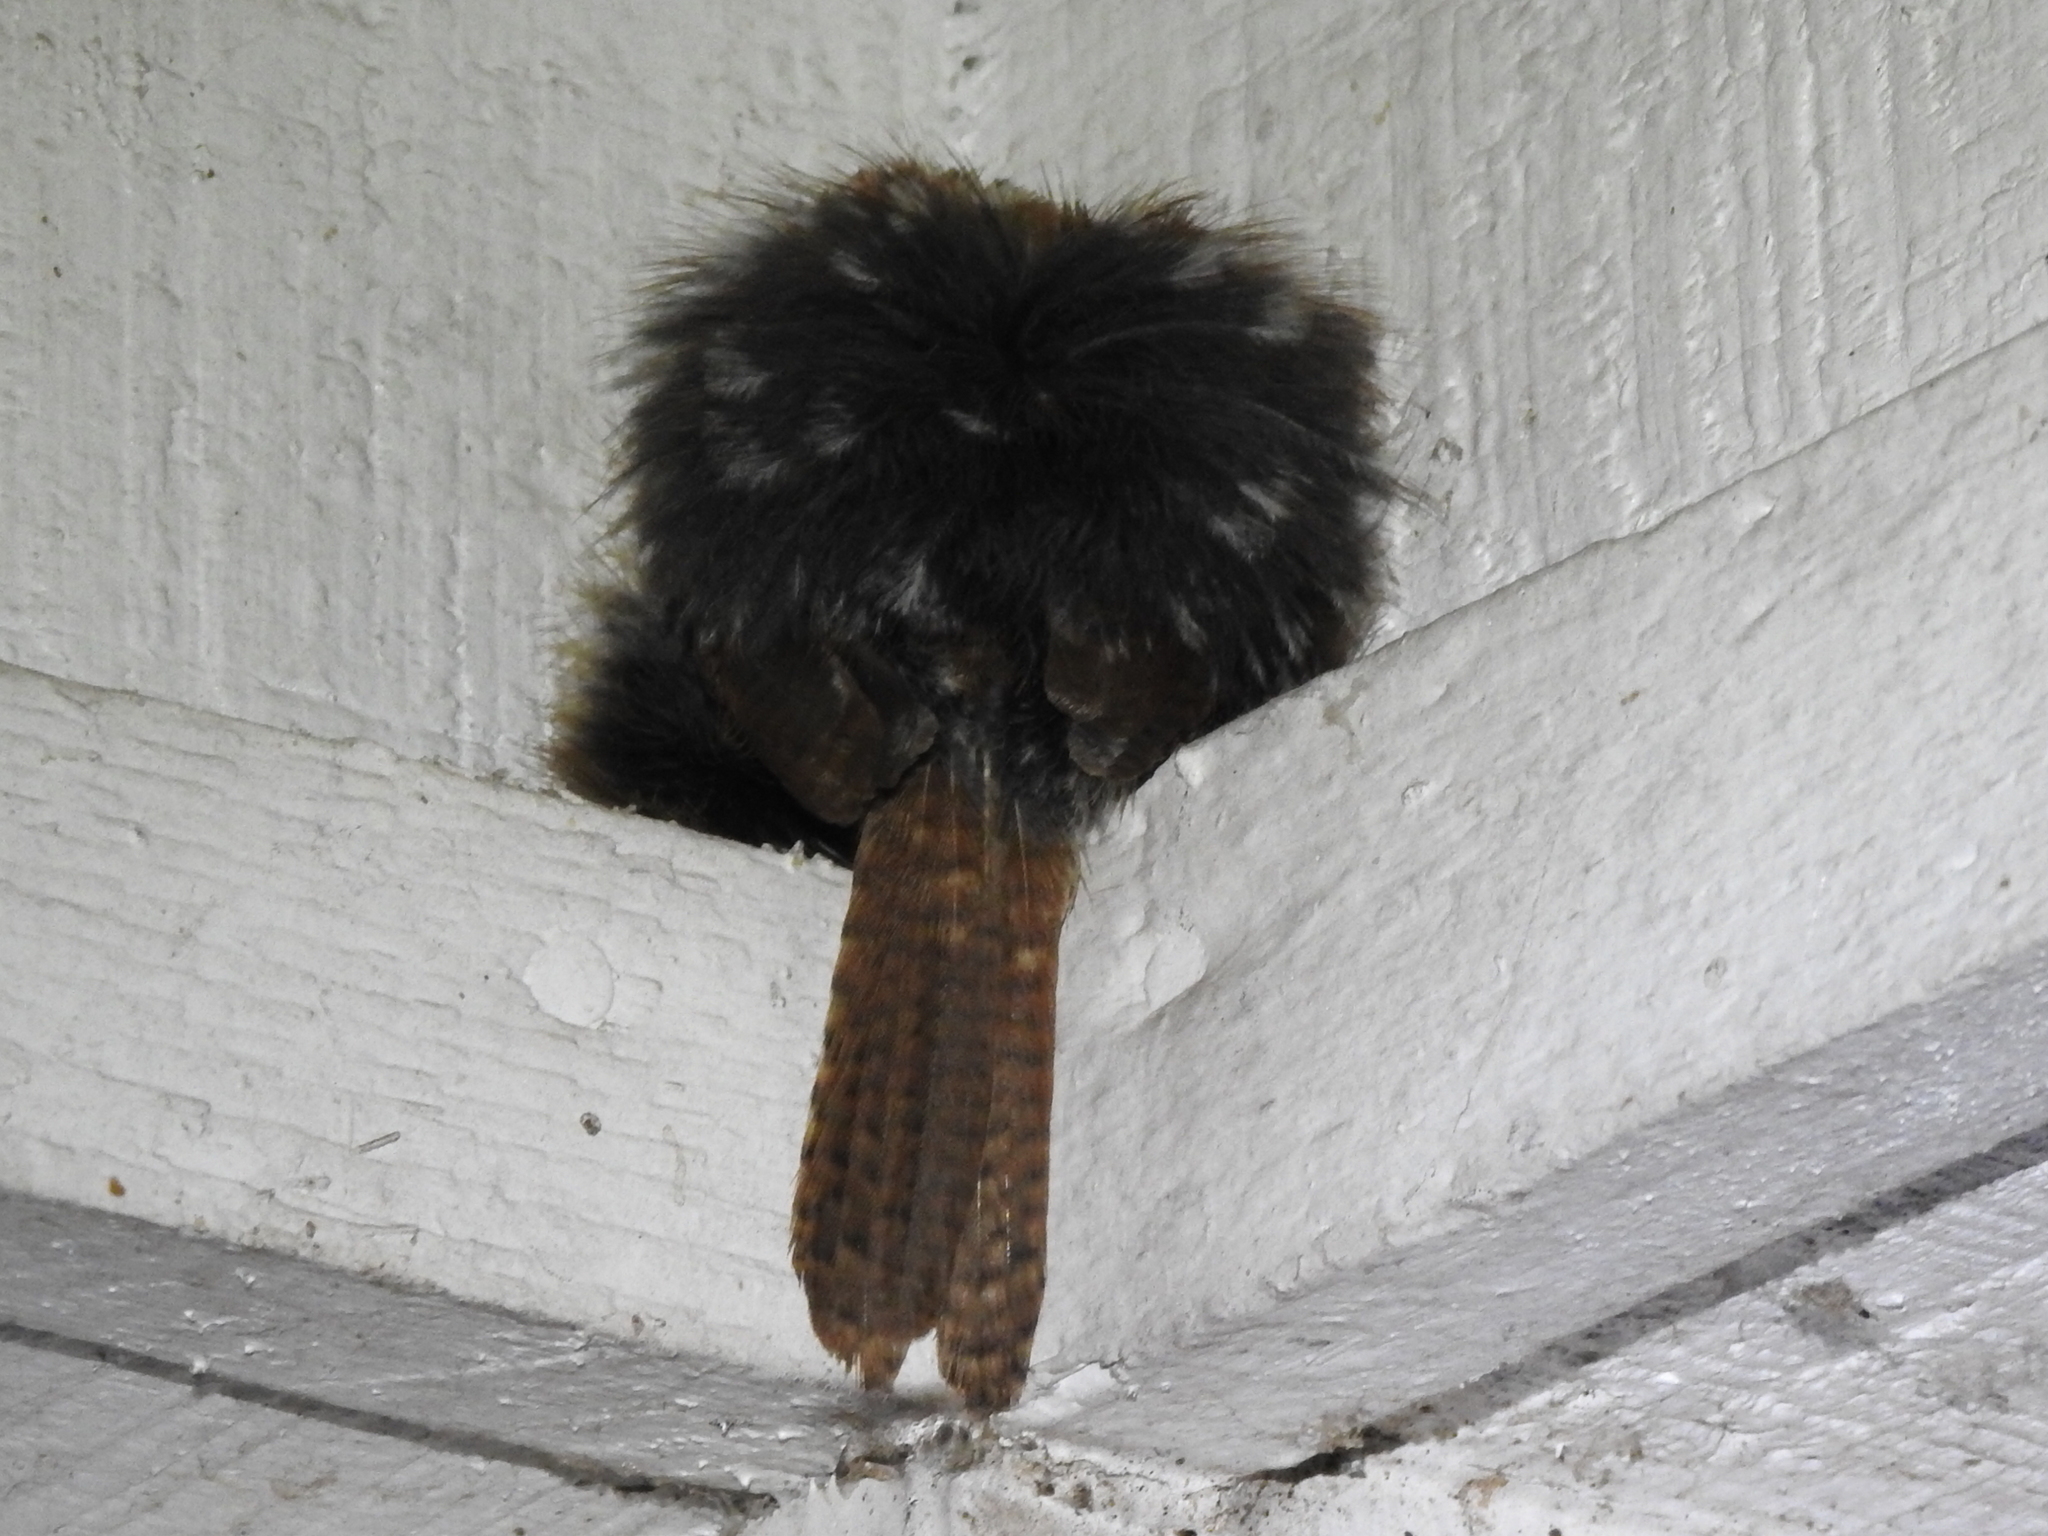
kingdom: Animalia
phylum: Chordata
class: Aves
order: Passeriformes
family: Troglodytidae
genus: Thryothorus
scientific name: Thryothorus ludovicianus
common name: Carolina wren
